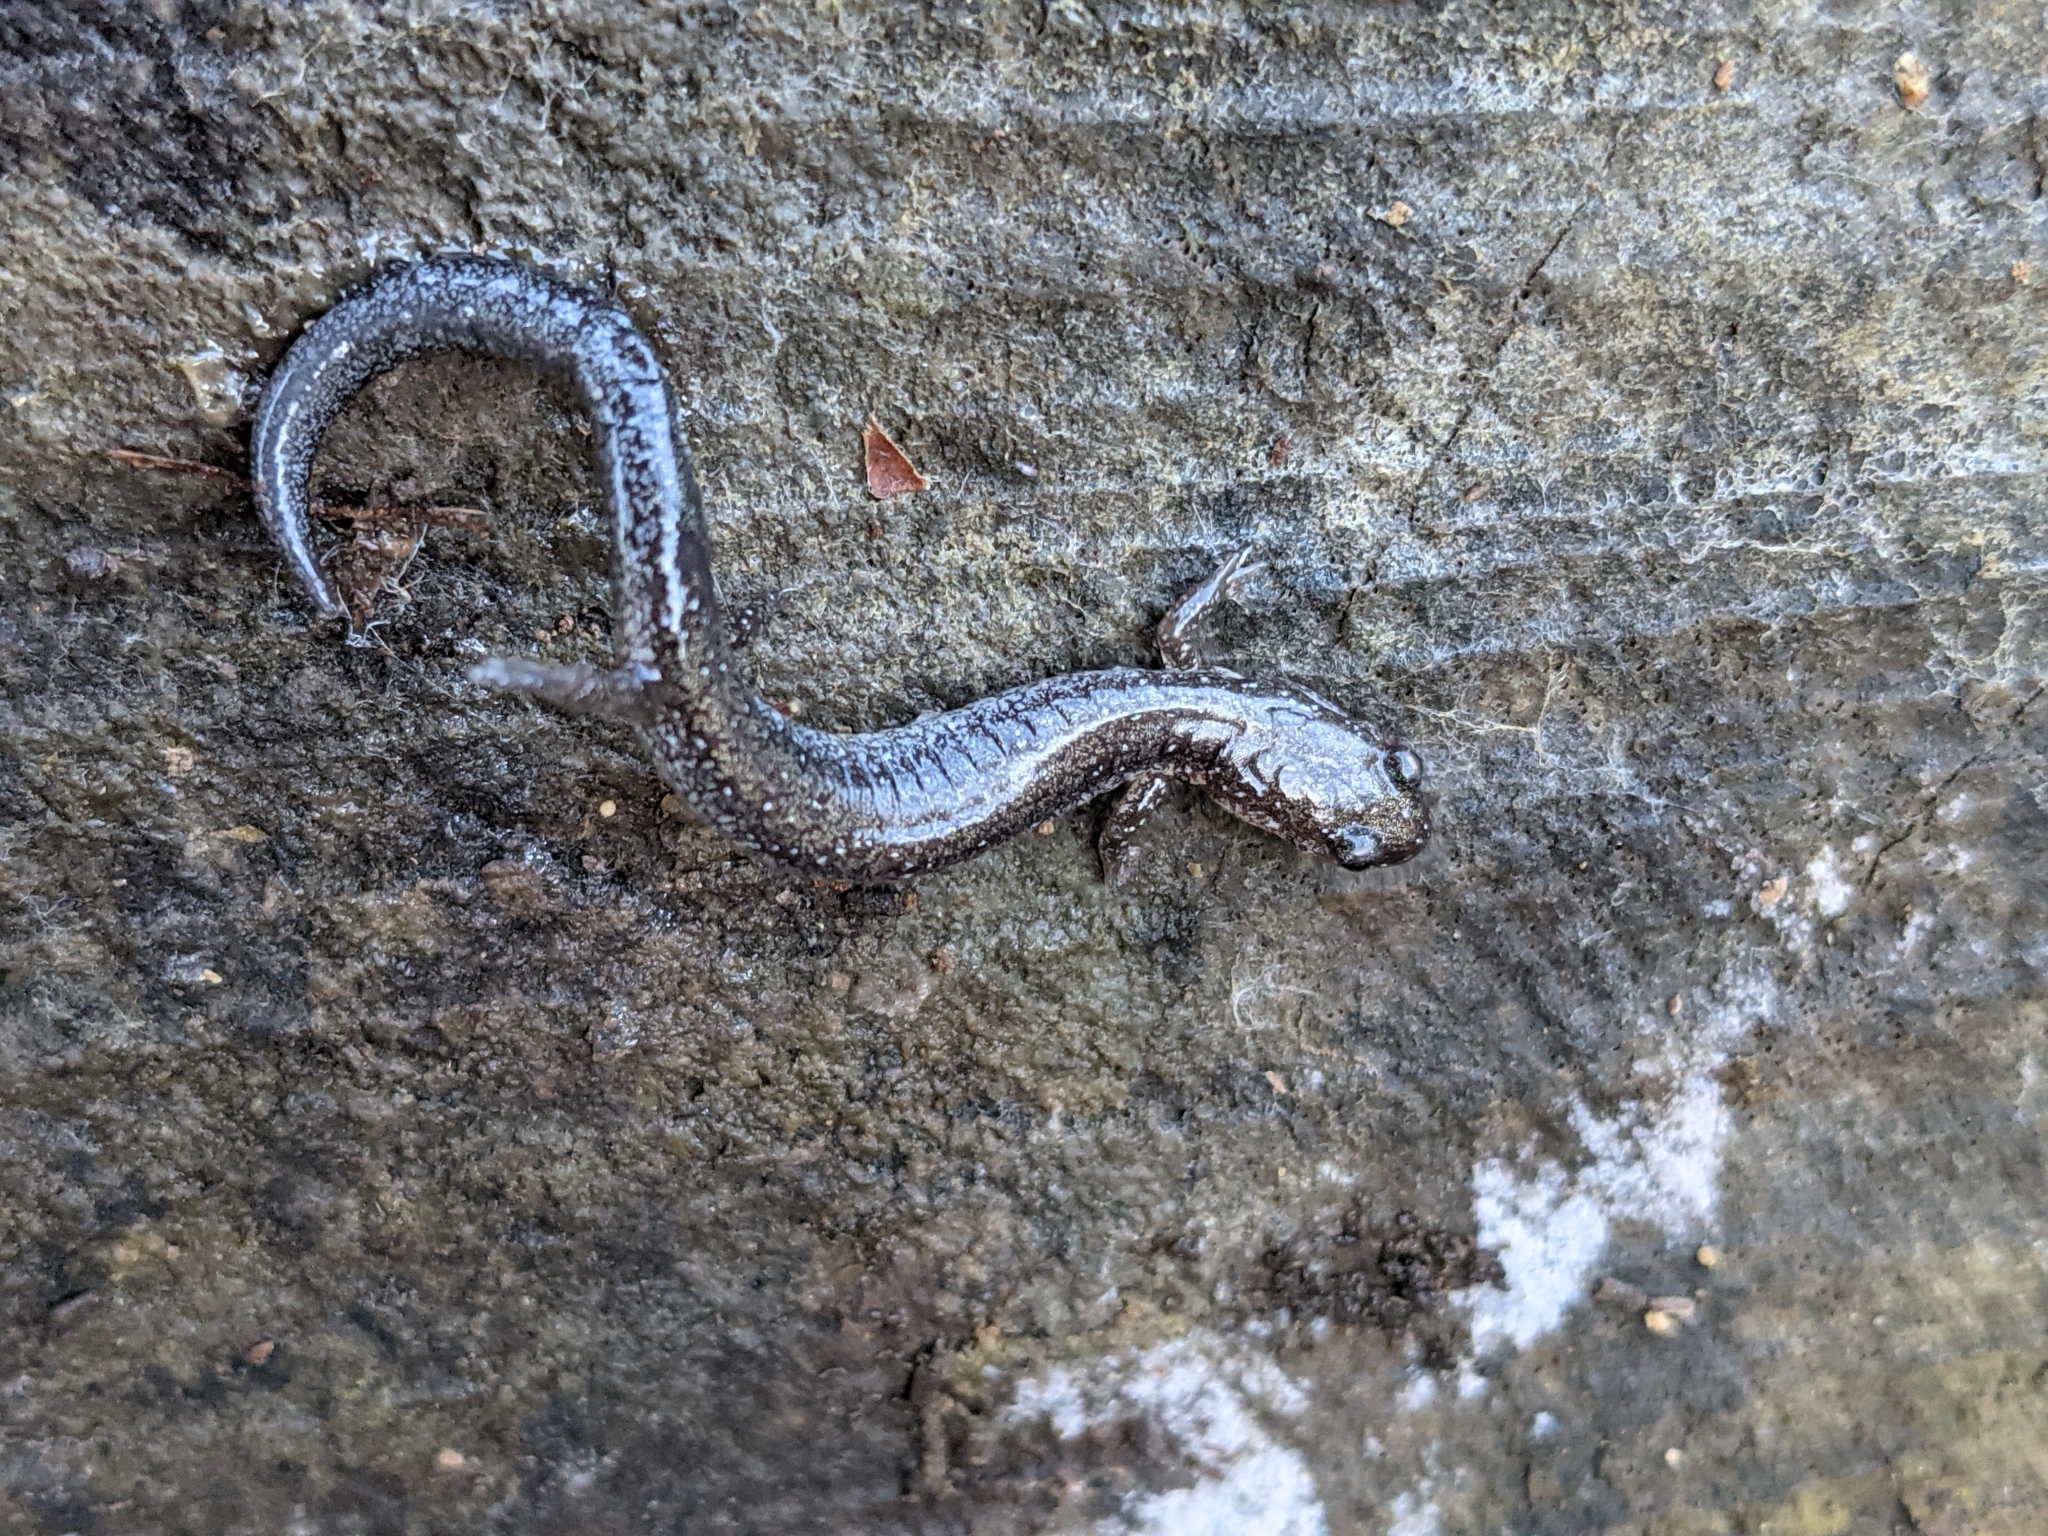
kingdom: Animalia
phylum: Chordata
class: Amphibia
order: Caudata
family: Plethodontidae
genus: Plethodon
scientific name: Plethodon cinereus
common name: Redback salamander
